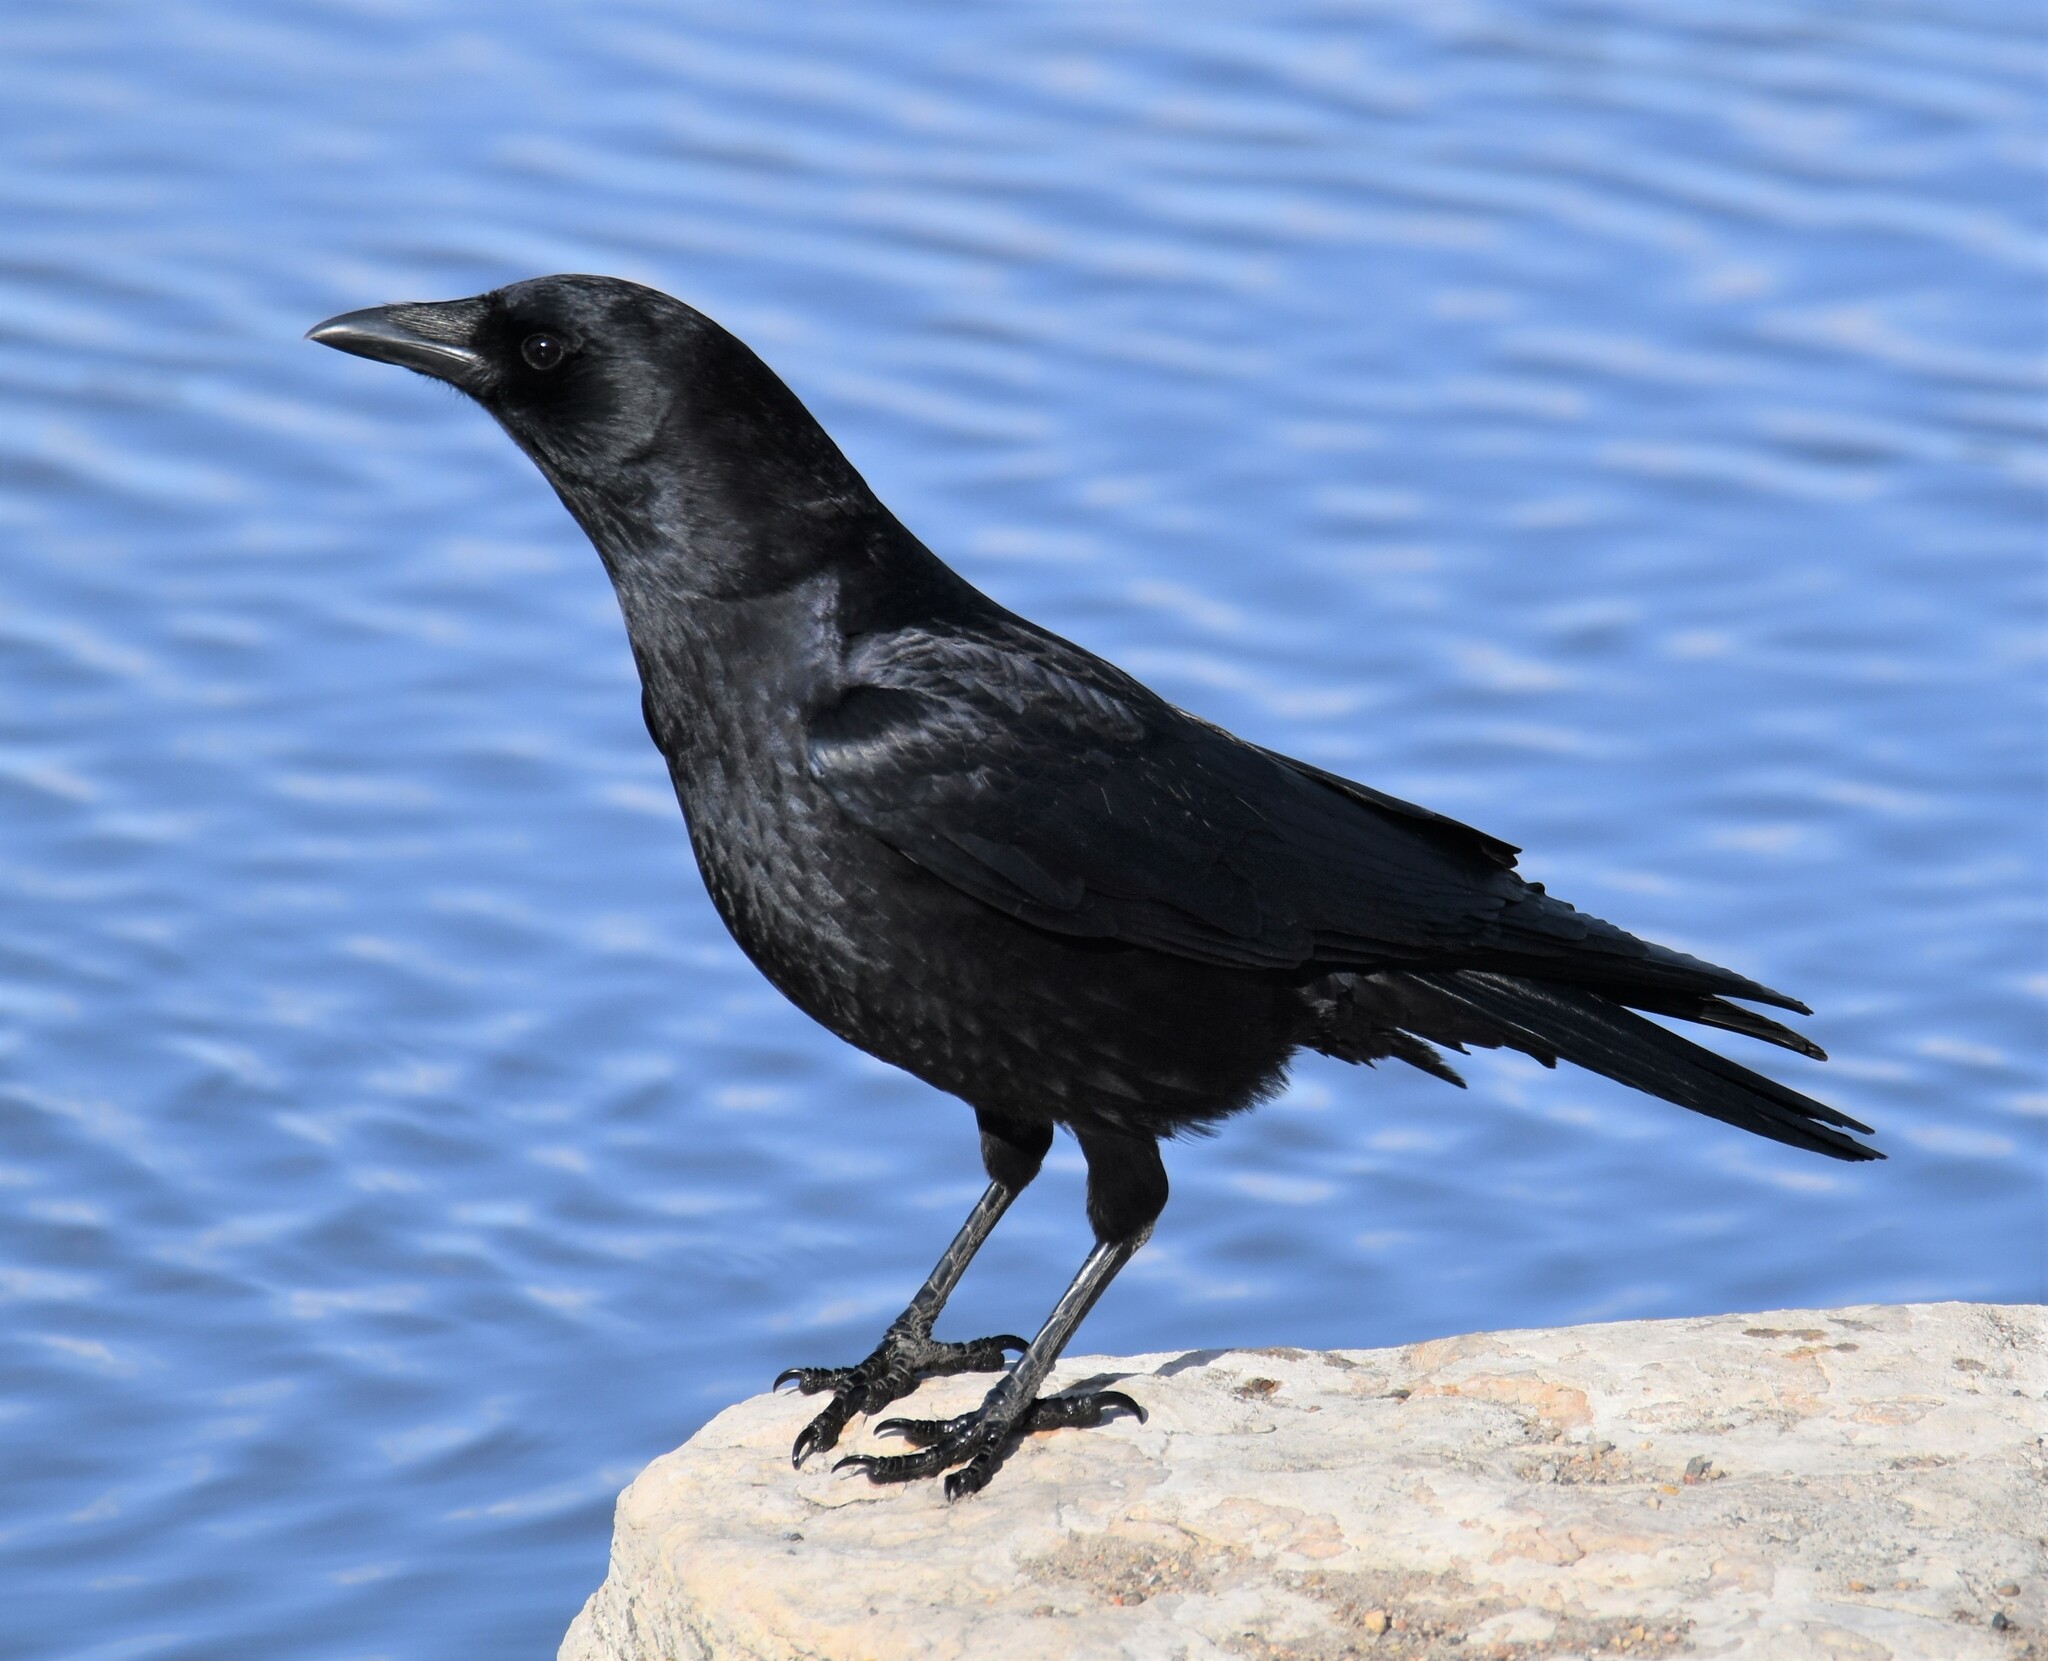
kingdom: Animalia
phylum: Chordata
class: Aves
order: Passeriformes
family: Corvidae
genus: Corvus
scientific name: Corvus brachyrhynchos
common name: American crow
